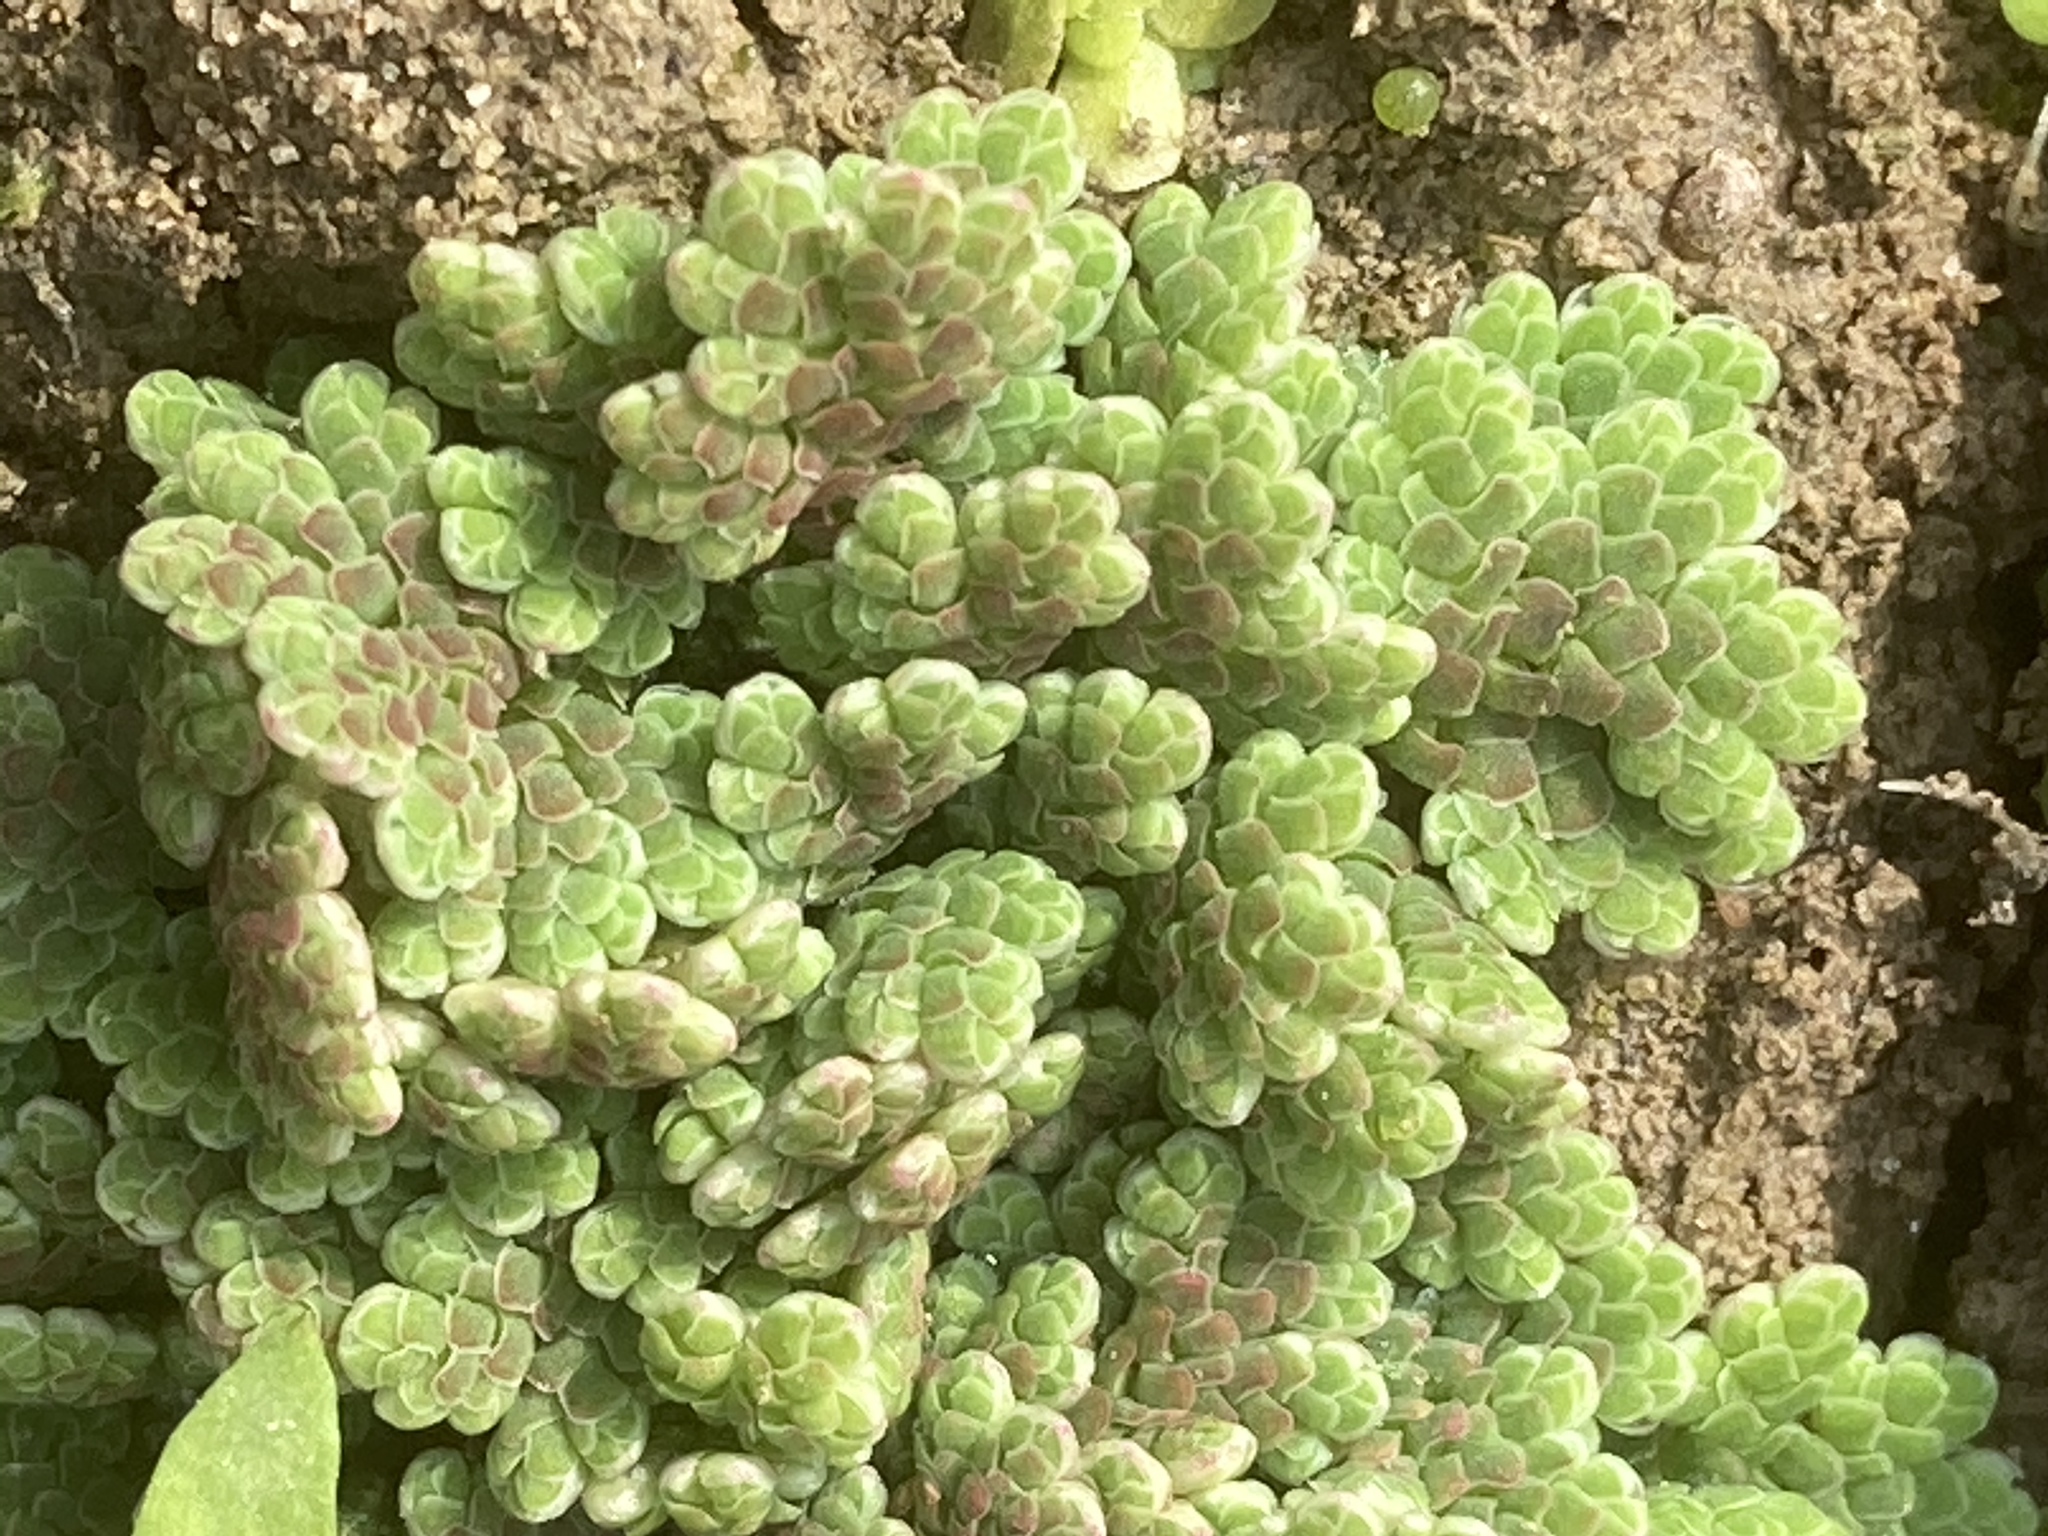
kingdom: Plantae
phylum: Tracheophyta
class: Polypodiopsida
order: Salviniales
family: Salviniaceae
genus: Azolla
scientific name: Azolla filiculoides
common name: Water fern
